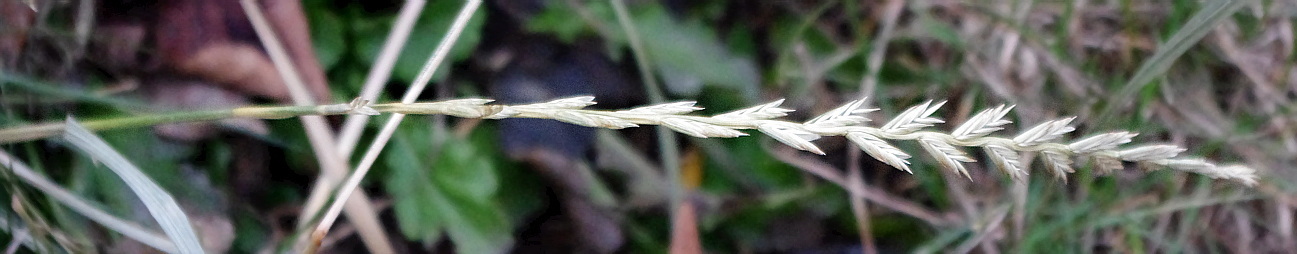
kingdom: Plantae
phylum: Tracheophyta
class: Liliopsida
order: Poales
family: Poaceae
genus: Lolium
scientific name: Lolium perenne
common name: Perennial ryegrass
